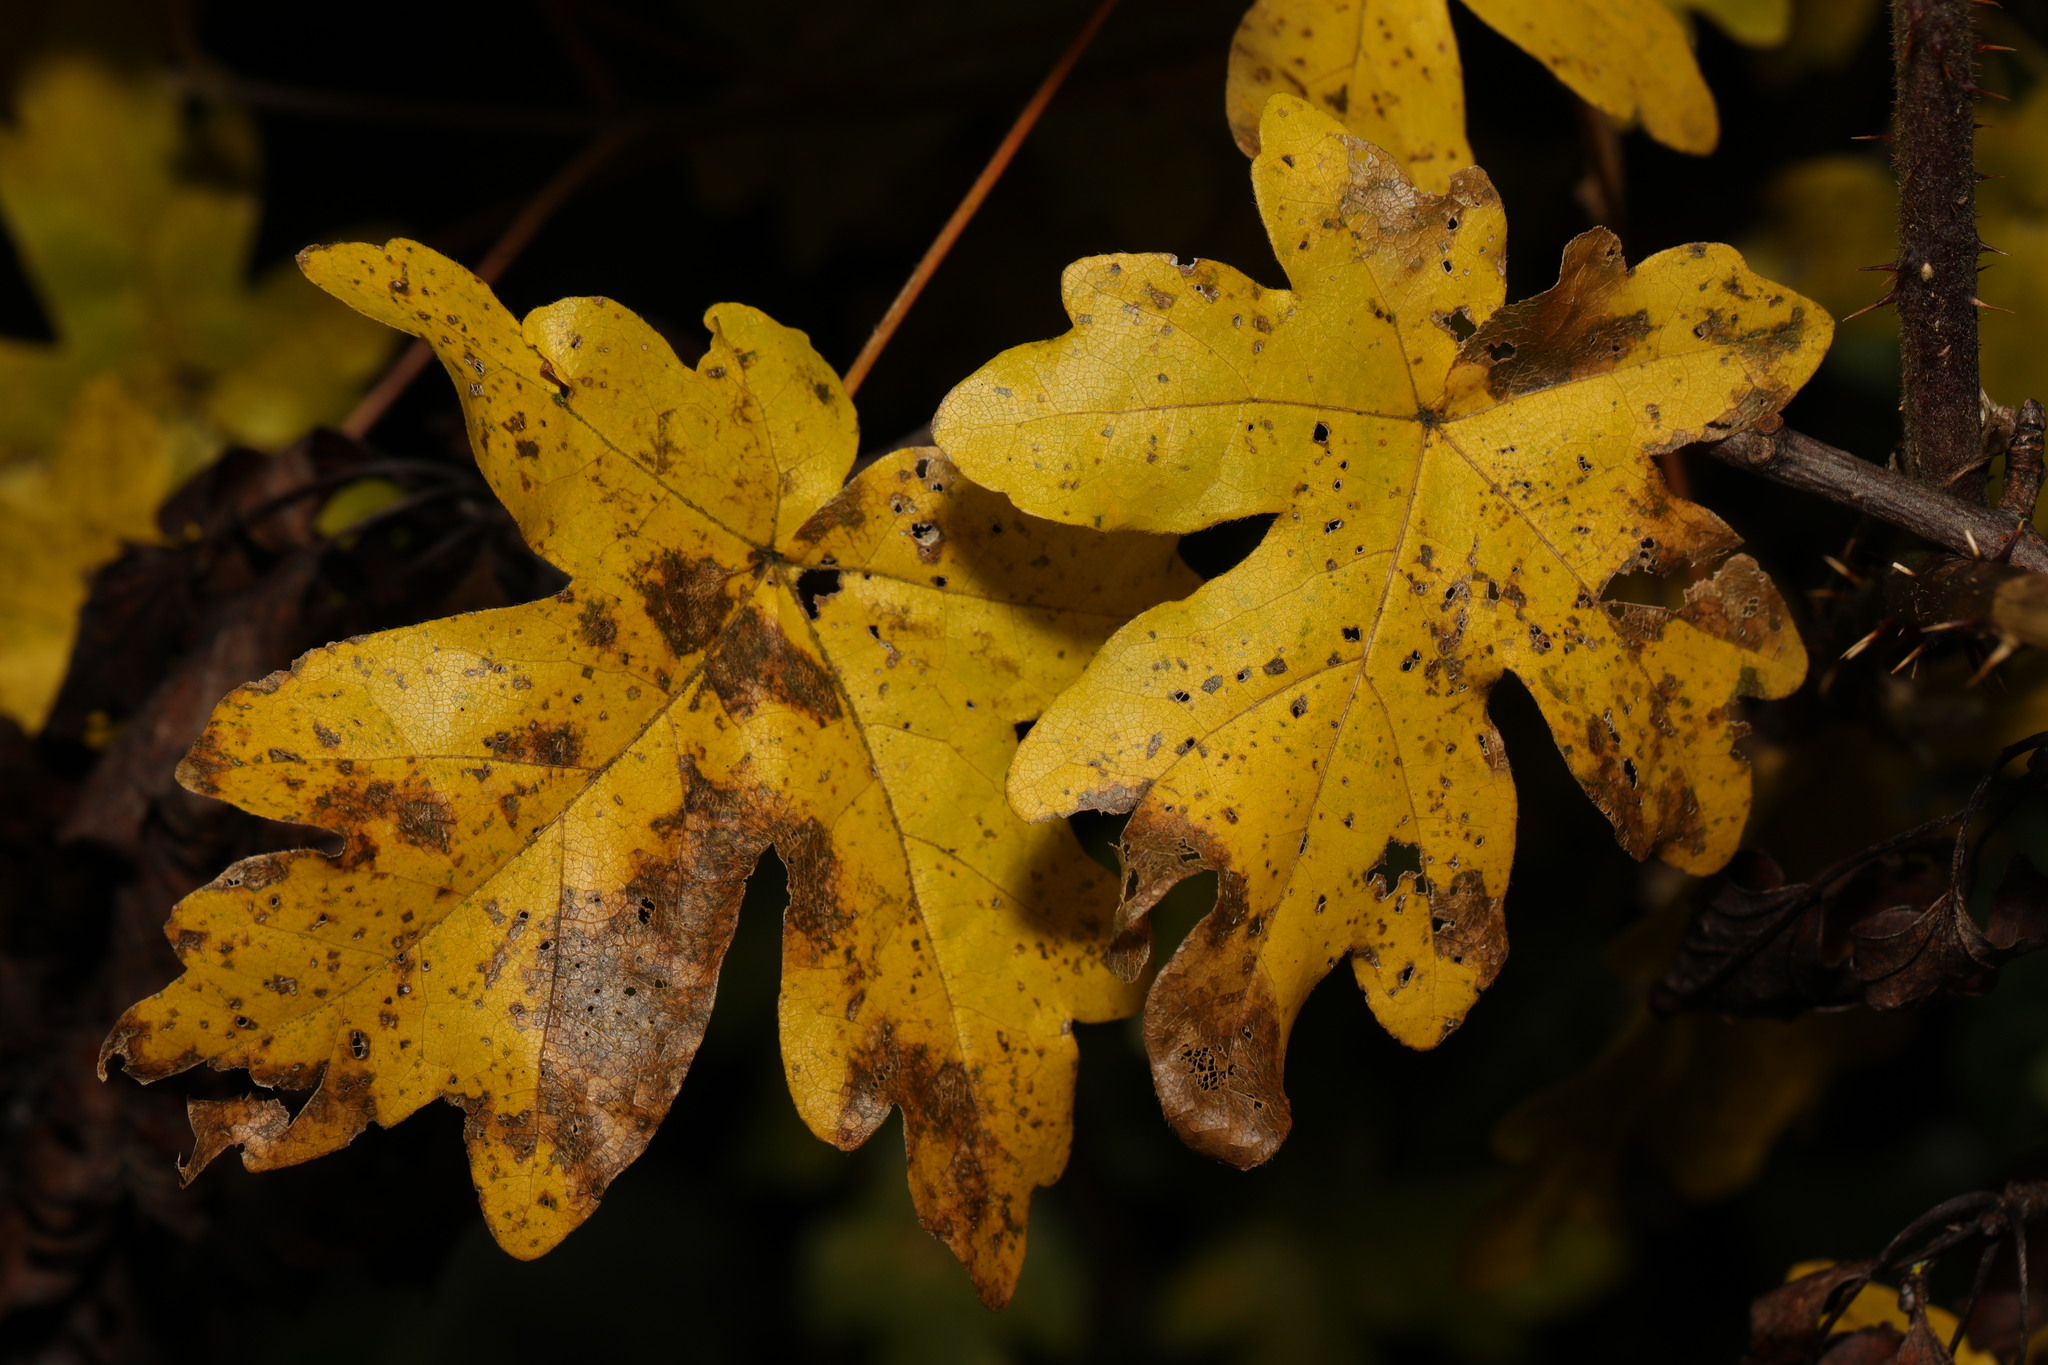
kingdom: Plantae
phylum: Tracheophyta
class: Magnoliopsida
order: Sapindales
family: Sapindaceae
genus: Acer
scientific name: Acer campestre
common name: Field maple
